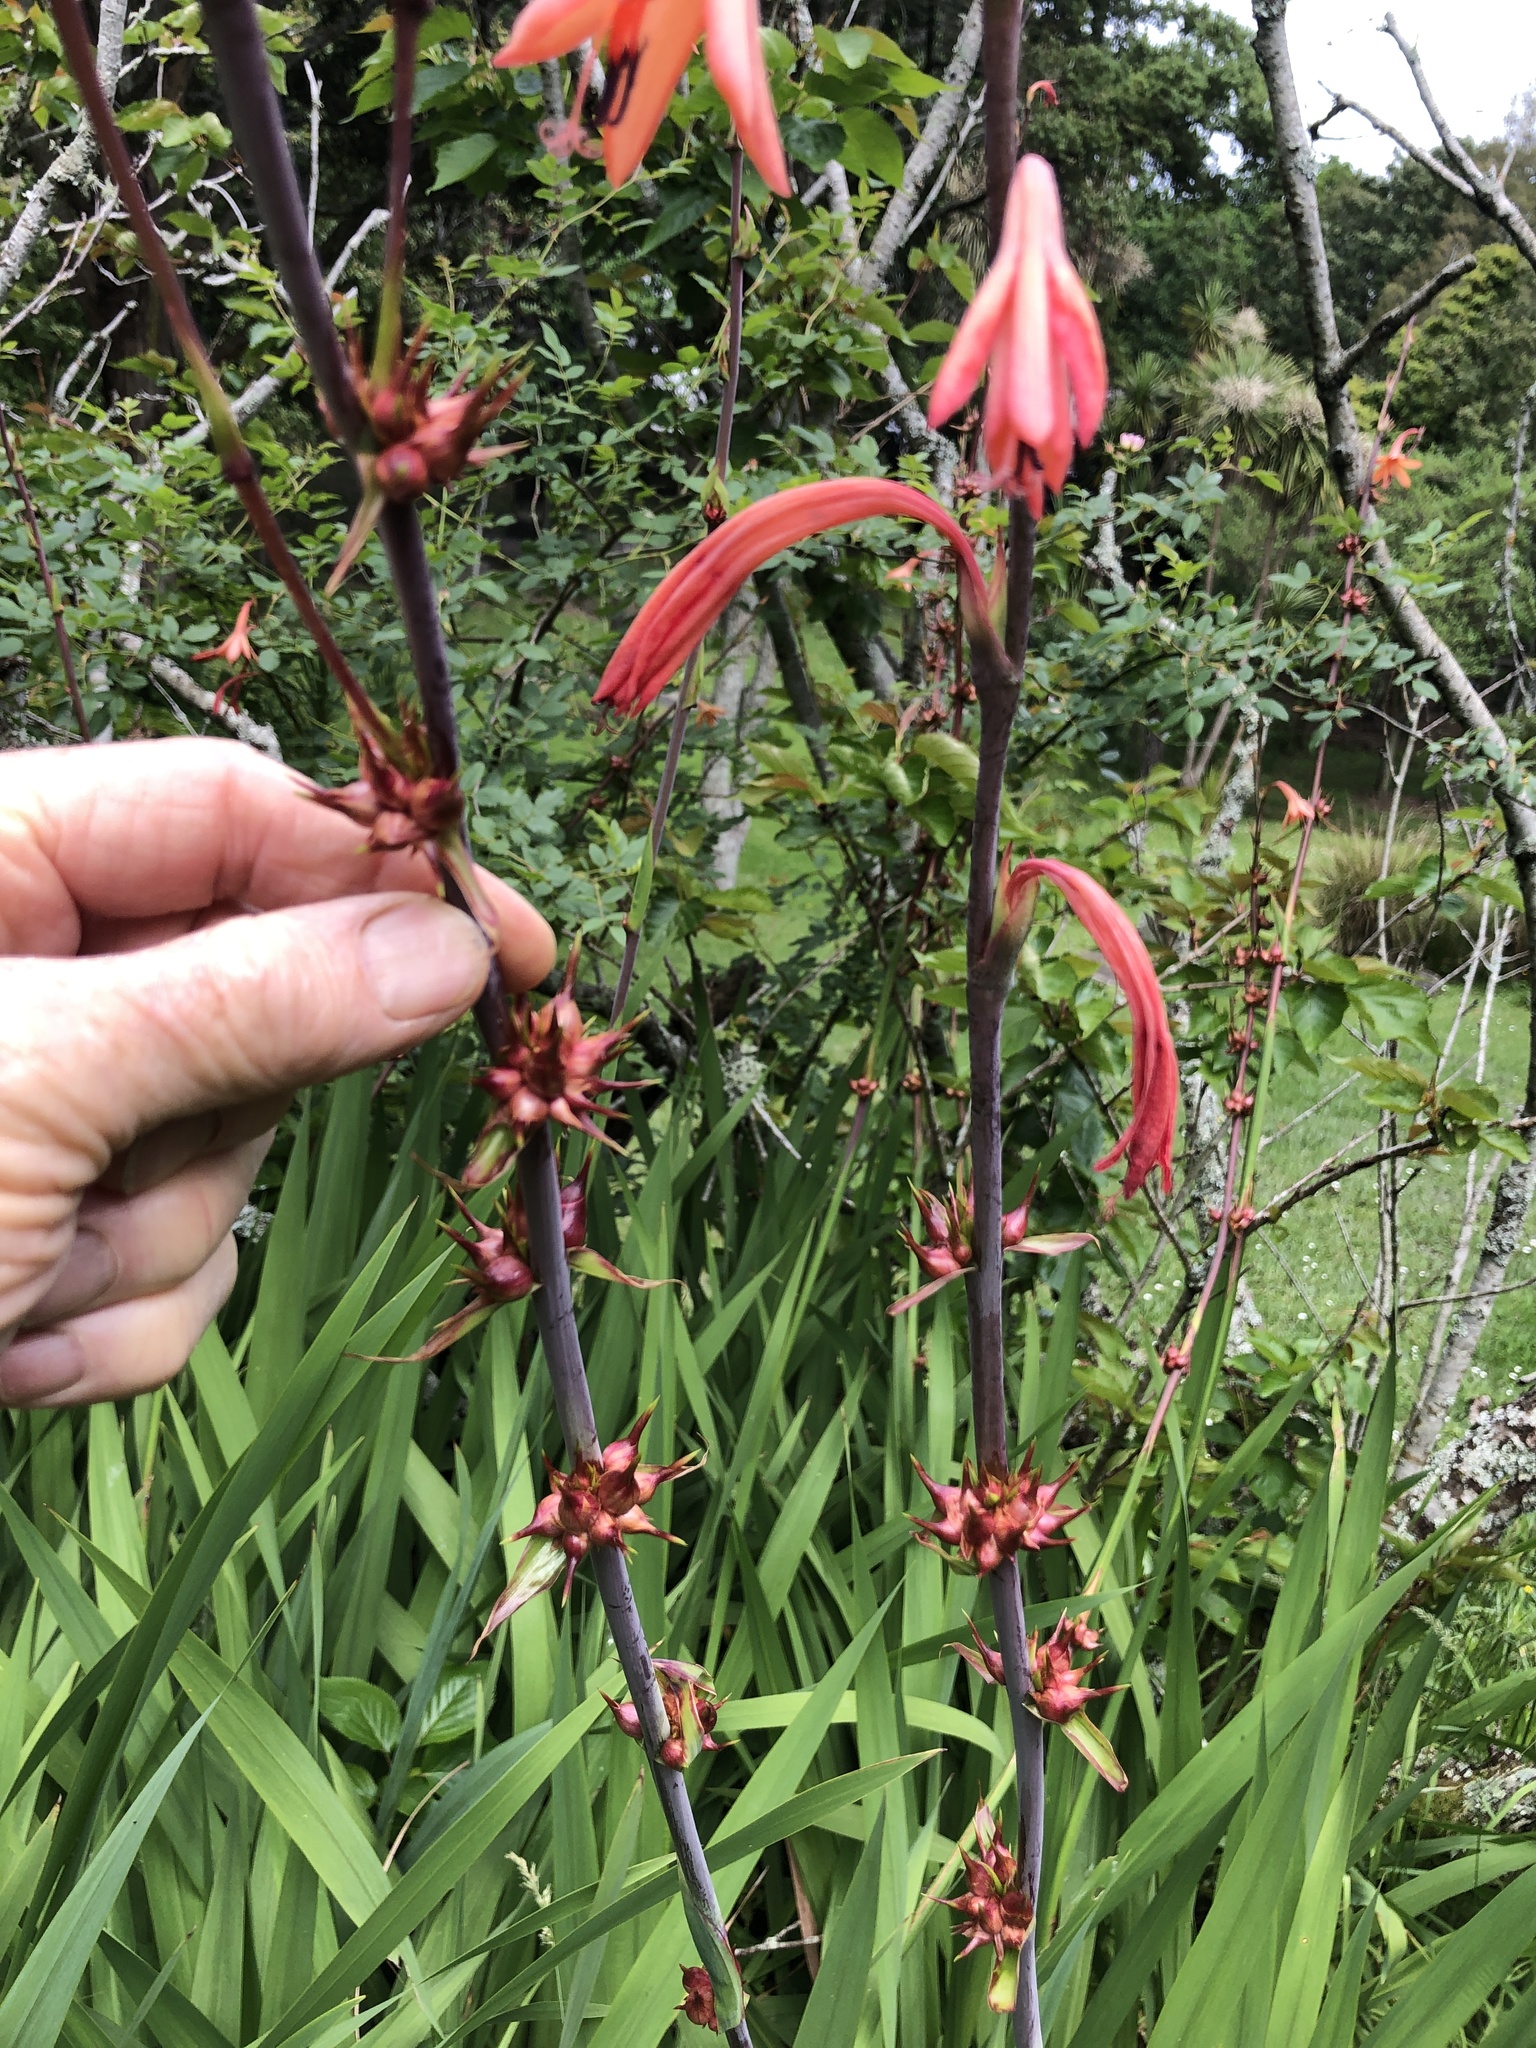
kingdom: Plantae
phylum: Tracheophyta
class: Liliopsida
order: Asparagales
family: Iridaceae
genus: Watsonia
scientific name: Watsonia meriana
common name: Bulbil bugle-lily
